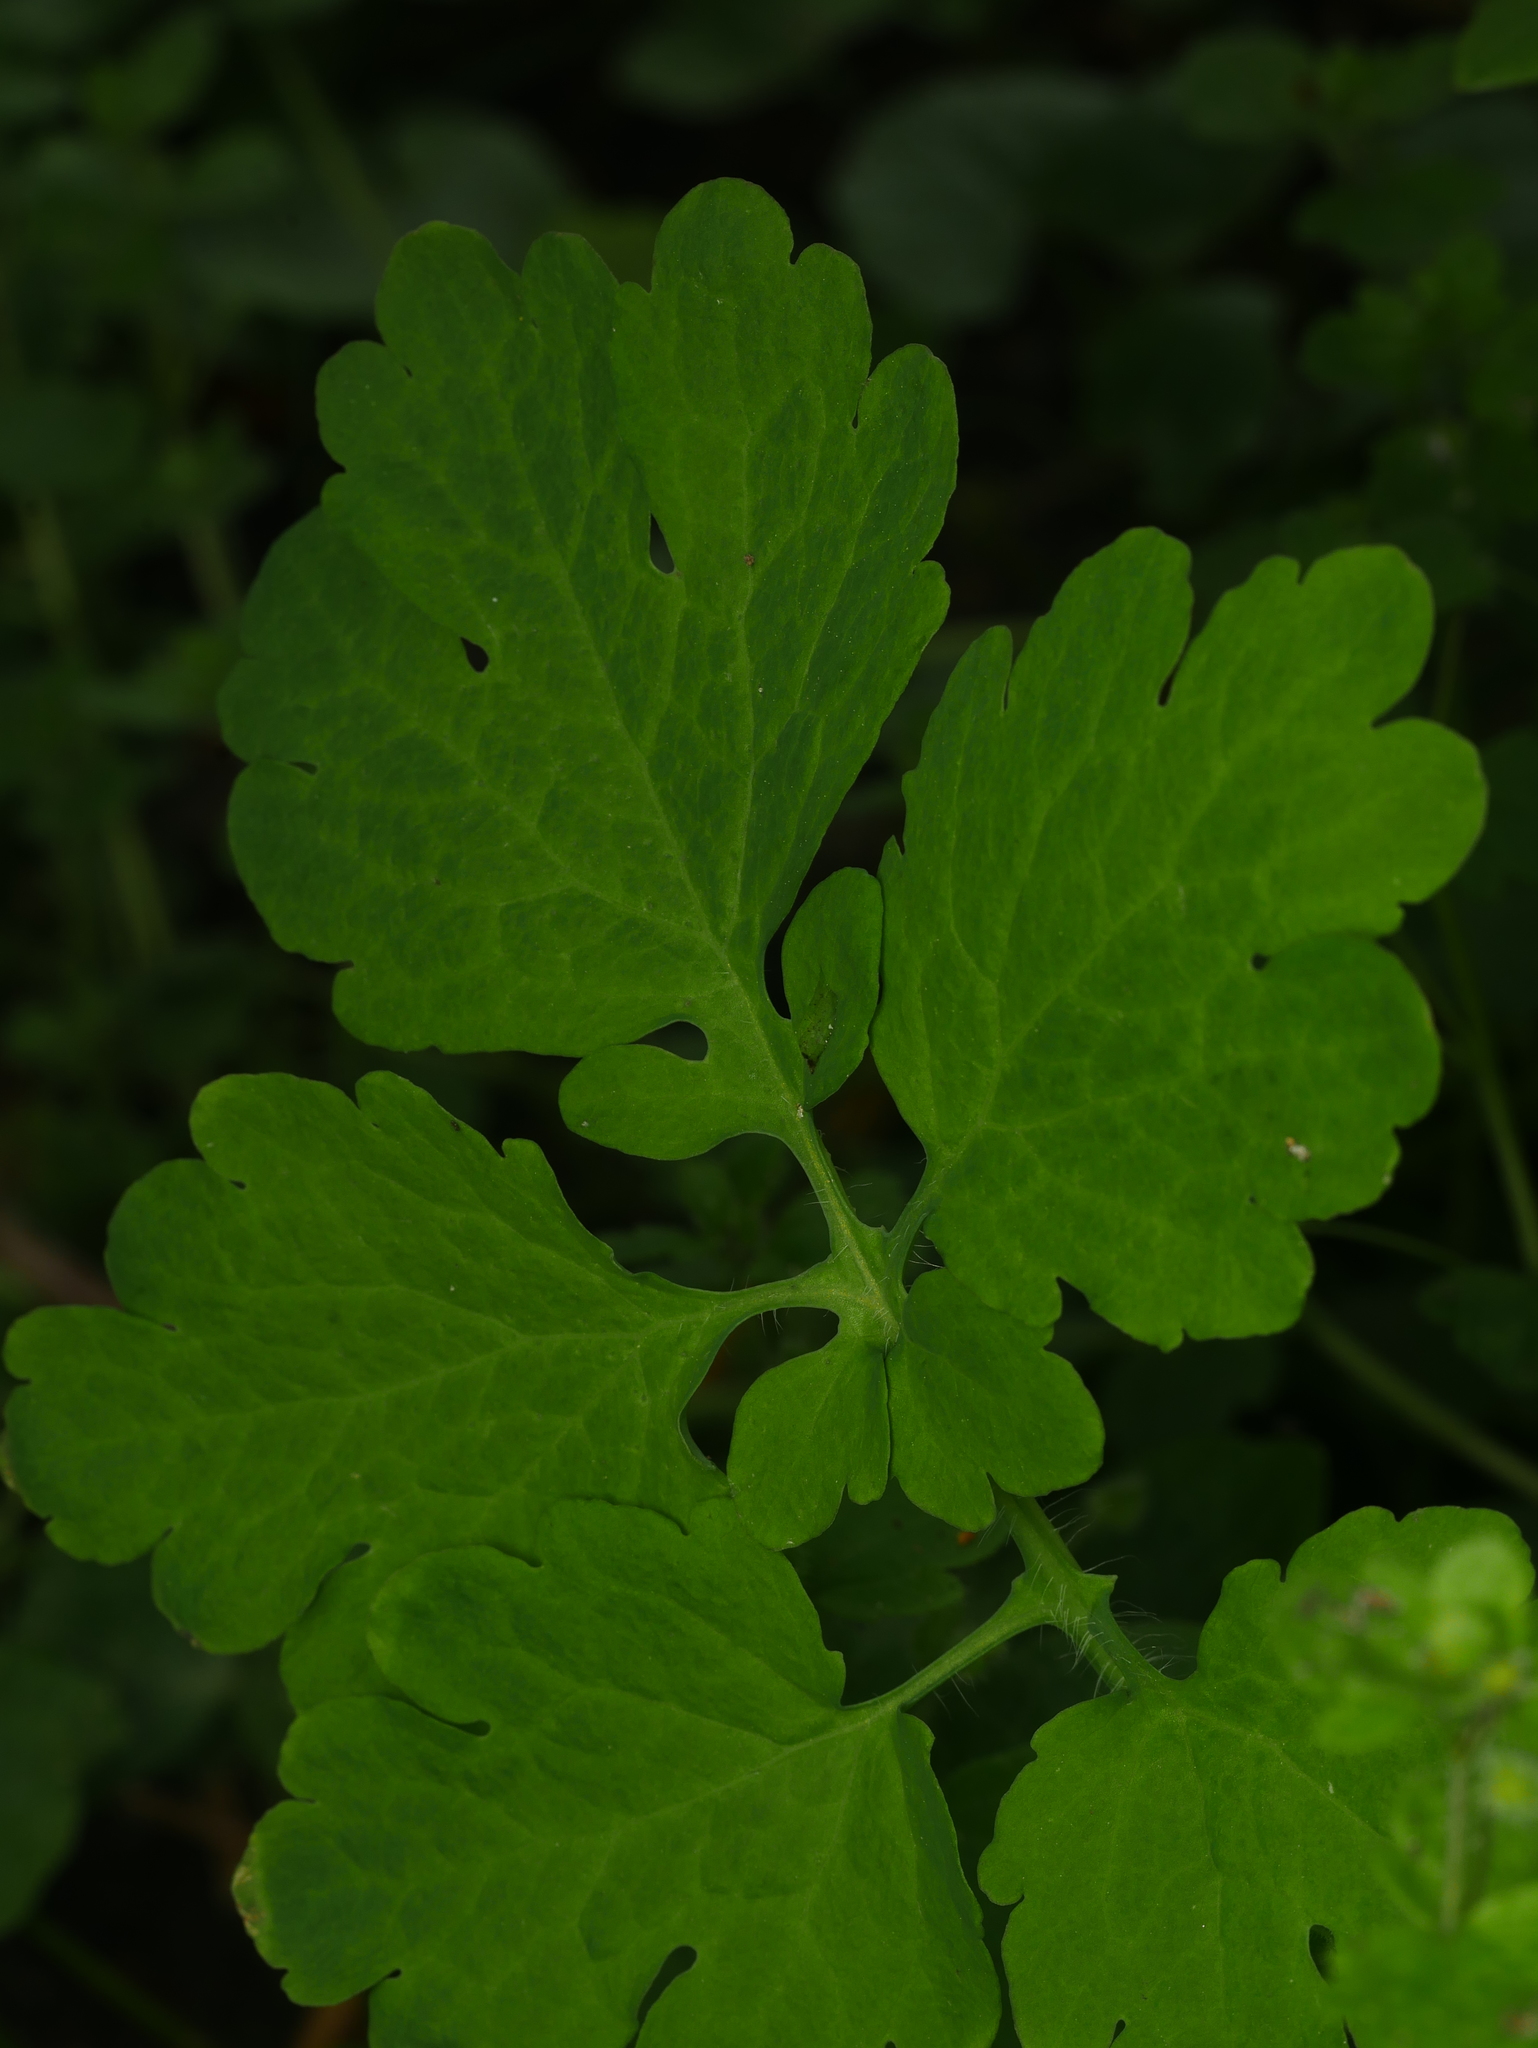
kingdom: Plantae
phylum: Tracheophyta
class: Magnoliopsida
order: Ranunculales
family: Papaveraceae
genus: Chelidonium
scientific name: Chelidonium majus
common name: Greater celandine
